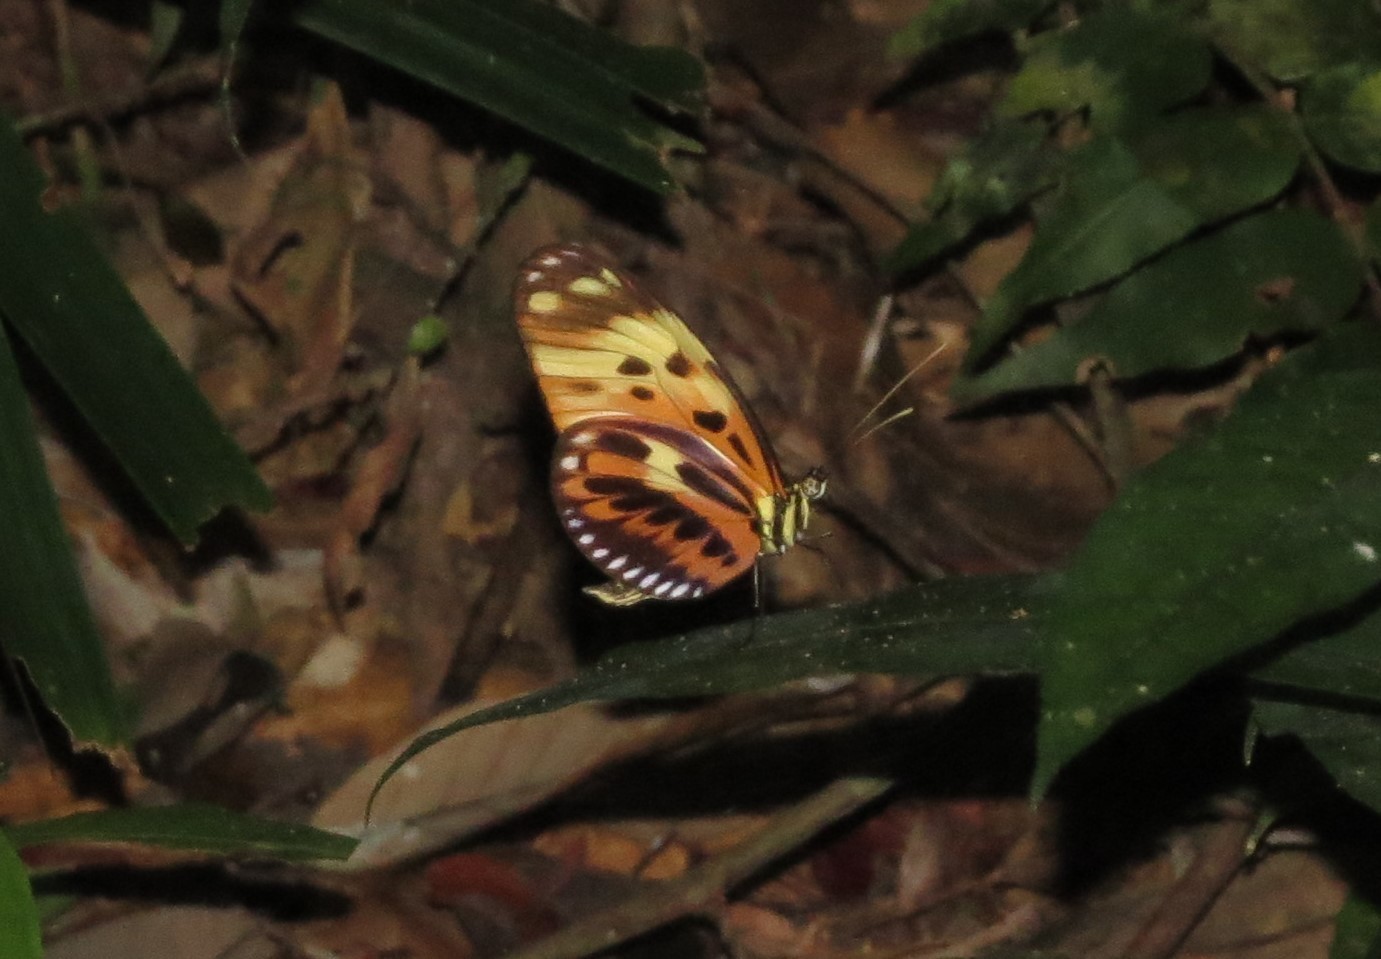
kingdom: Animalia
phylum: Arthropoda
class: Insecta
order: Lepidoptera
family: Nymphalidae
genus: Heliconius
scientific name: Heliconius numatus
